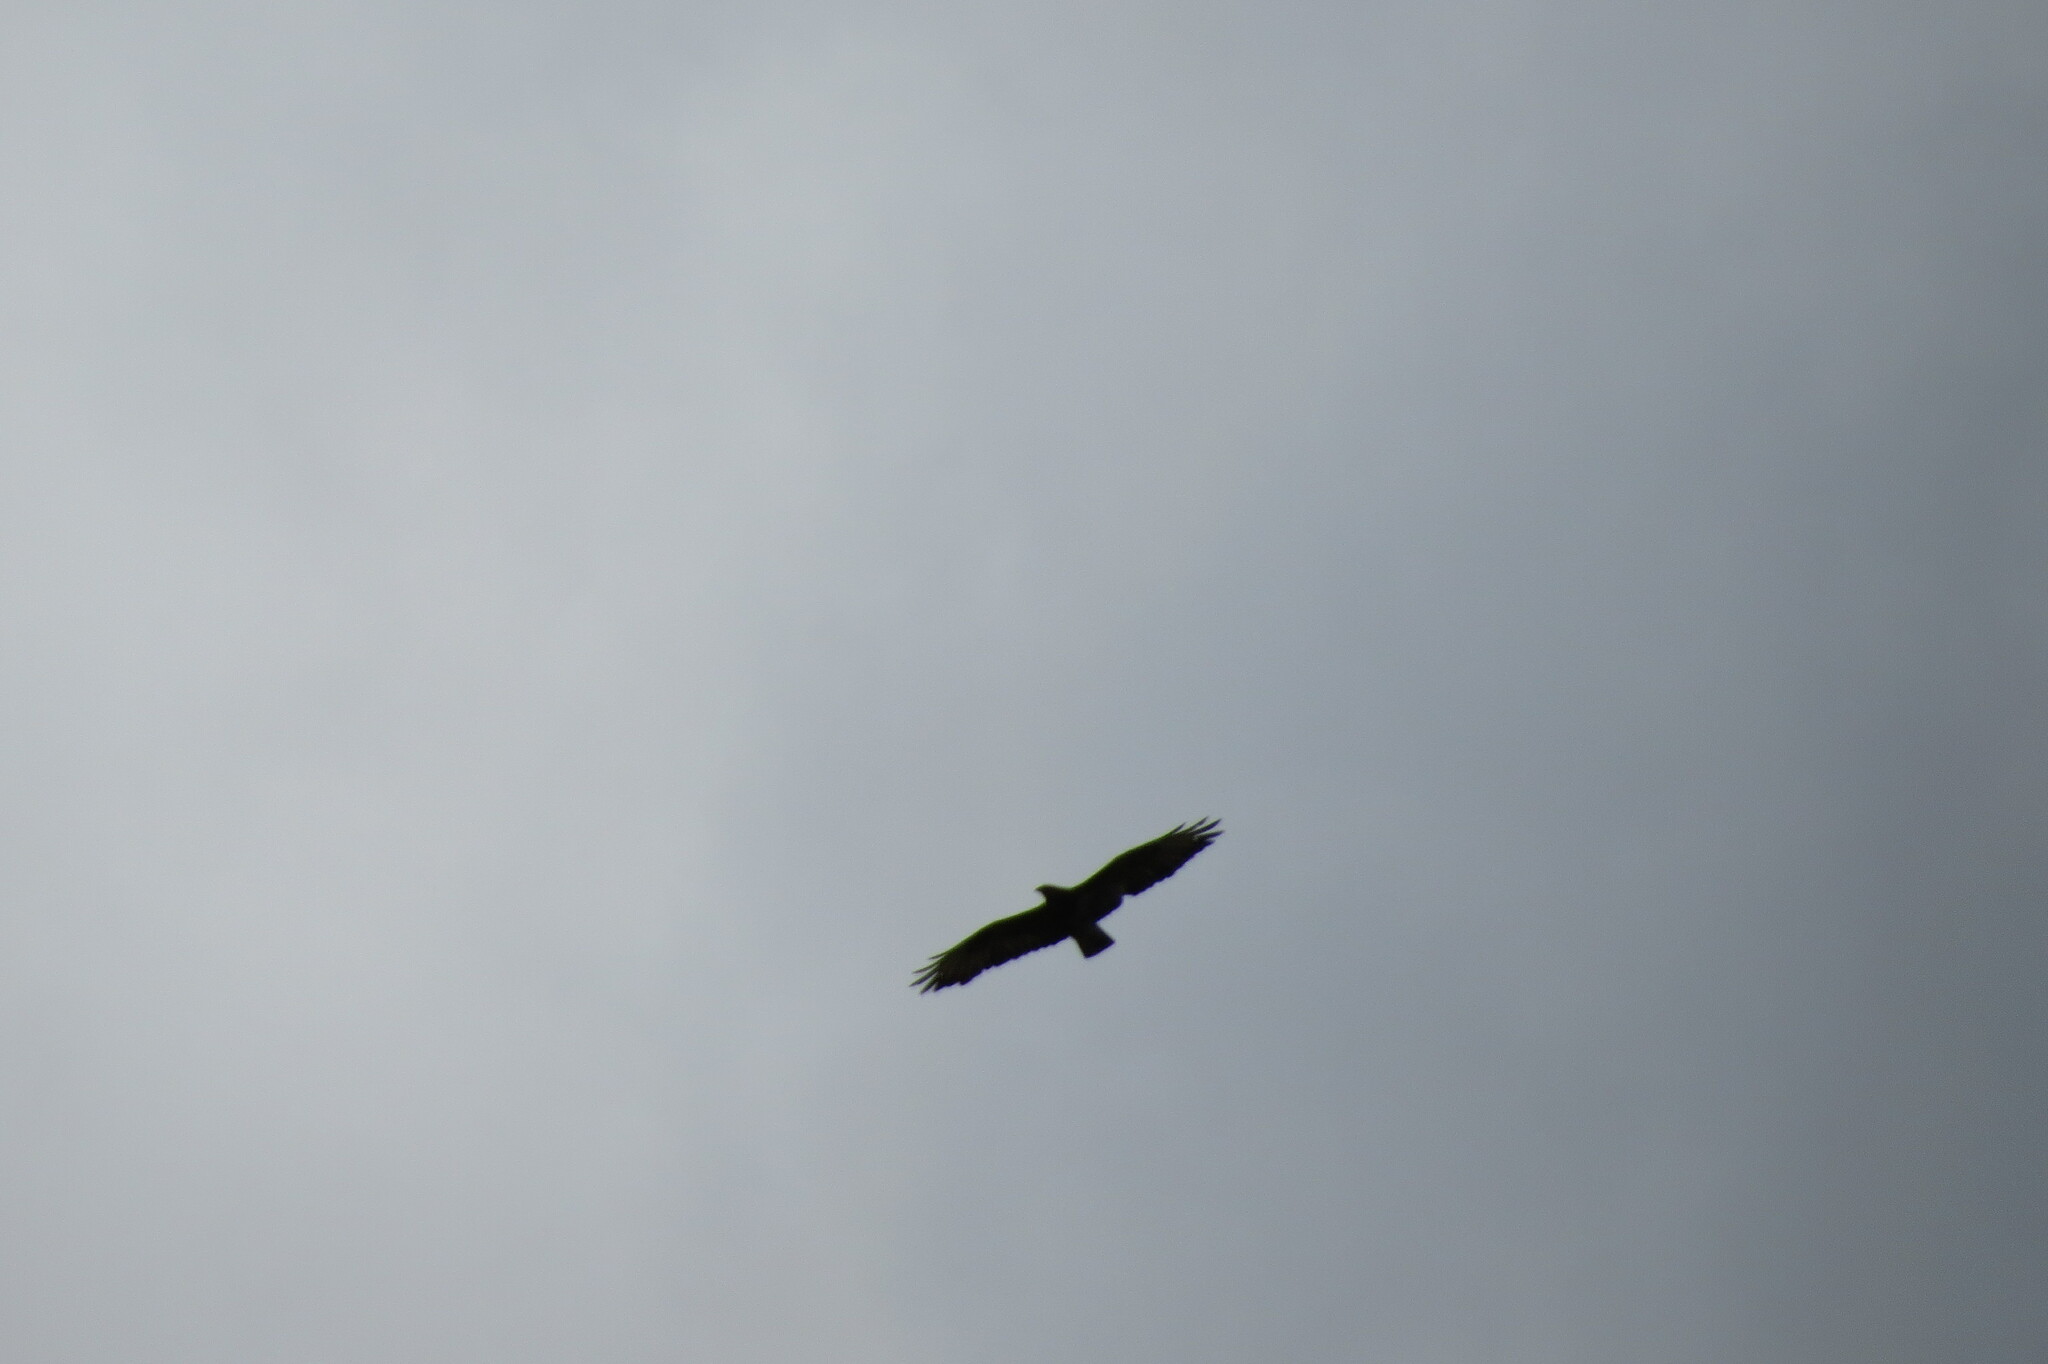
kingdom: Animalia
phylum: Chordata
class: Aves
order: Accipitriformes
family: Accipitridae
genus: Buteo
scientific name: Buteo buteo
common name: Common buzzard
